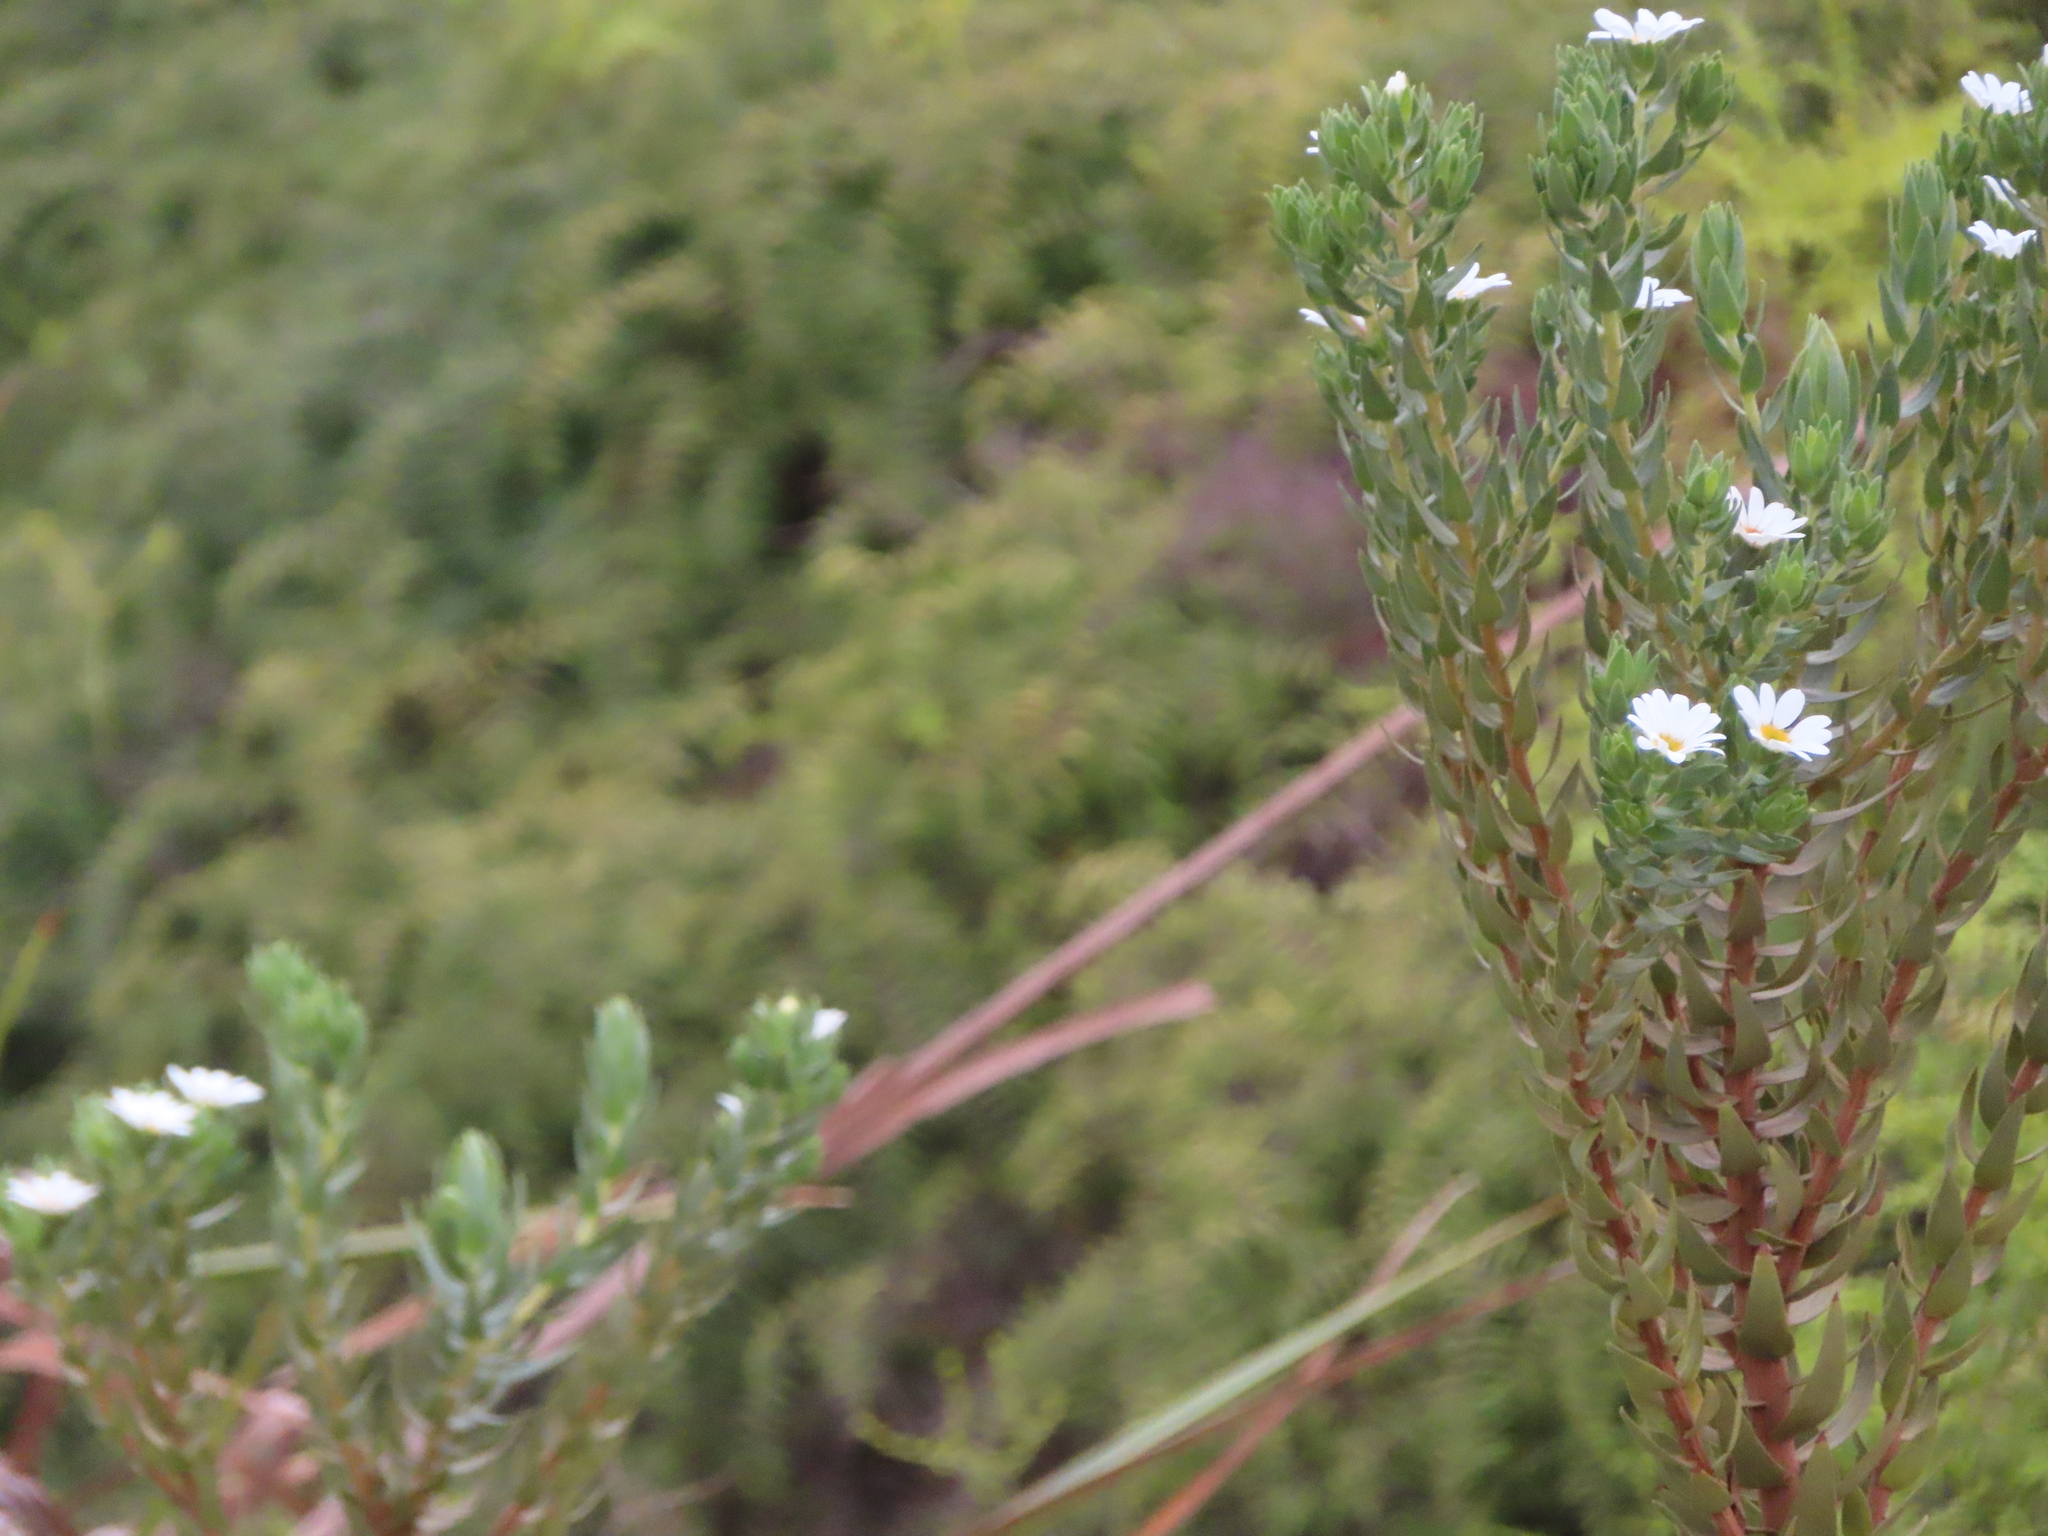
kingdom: Plantae
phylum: Tracheophyta
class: Magnoliopsida
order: Asterales
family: Asteraceae
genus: Osmitopsis
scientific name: Osmitopsis asteriscoides
